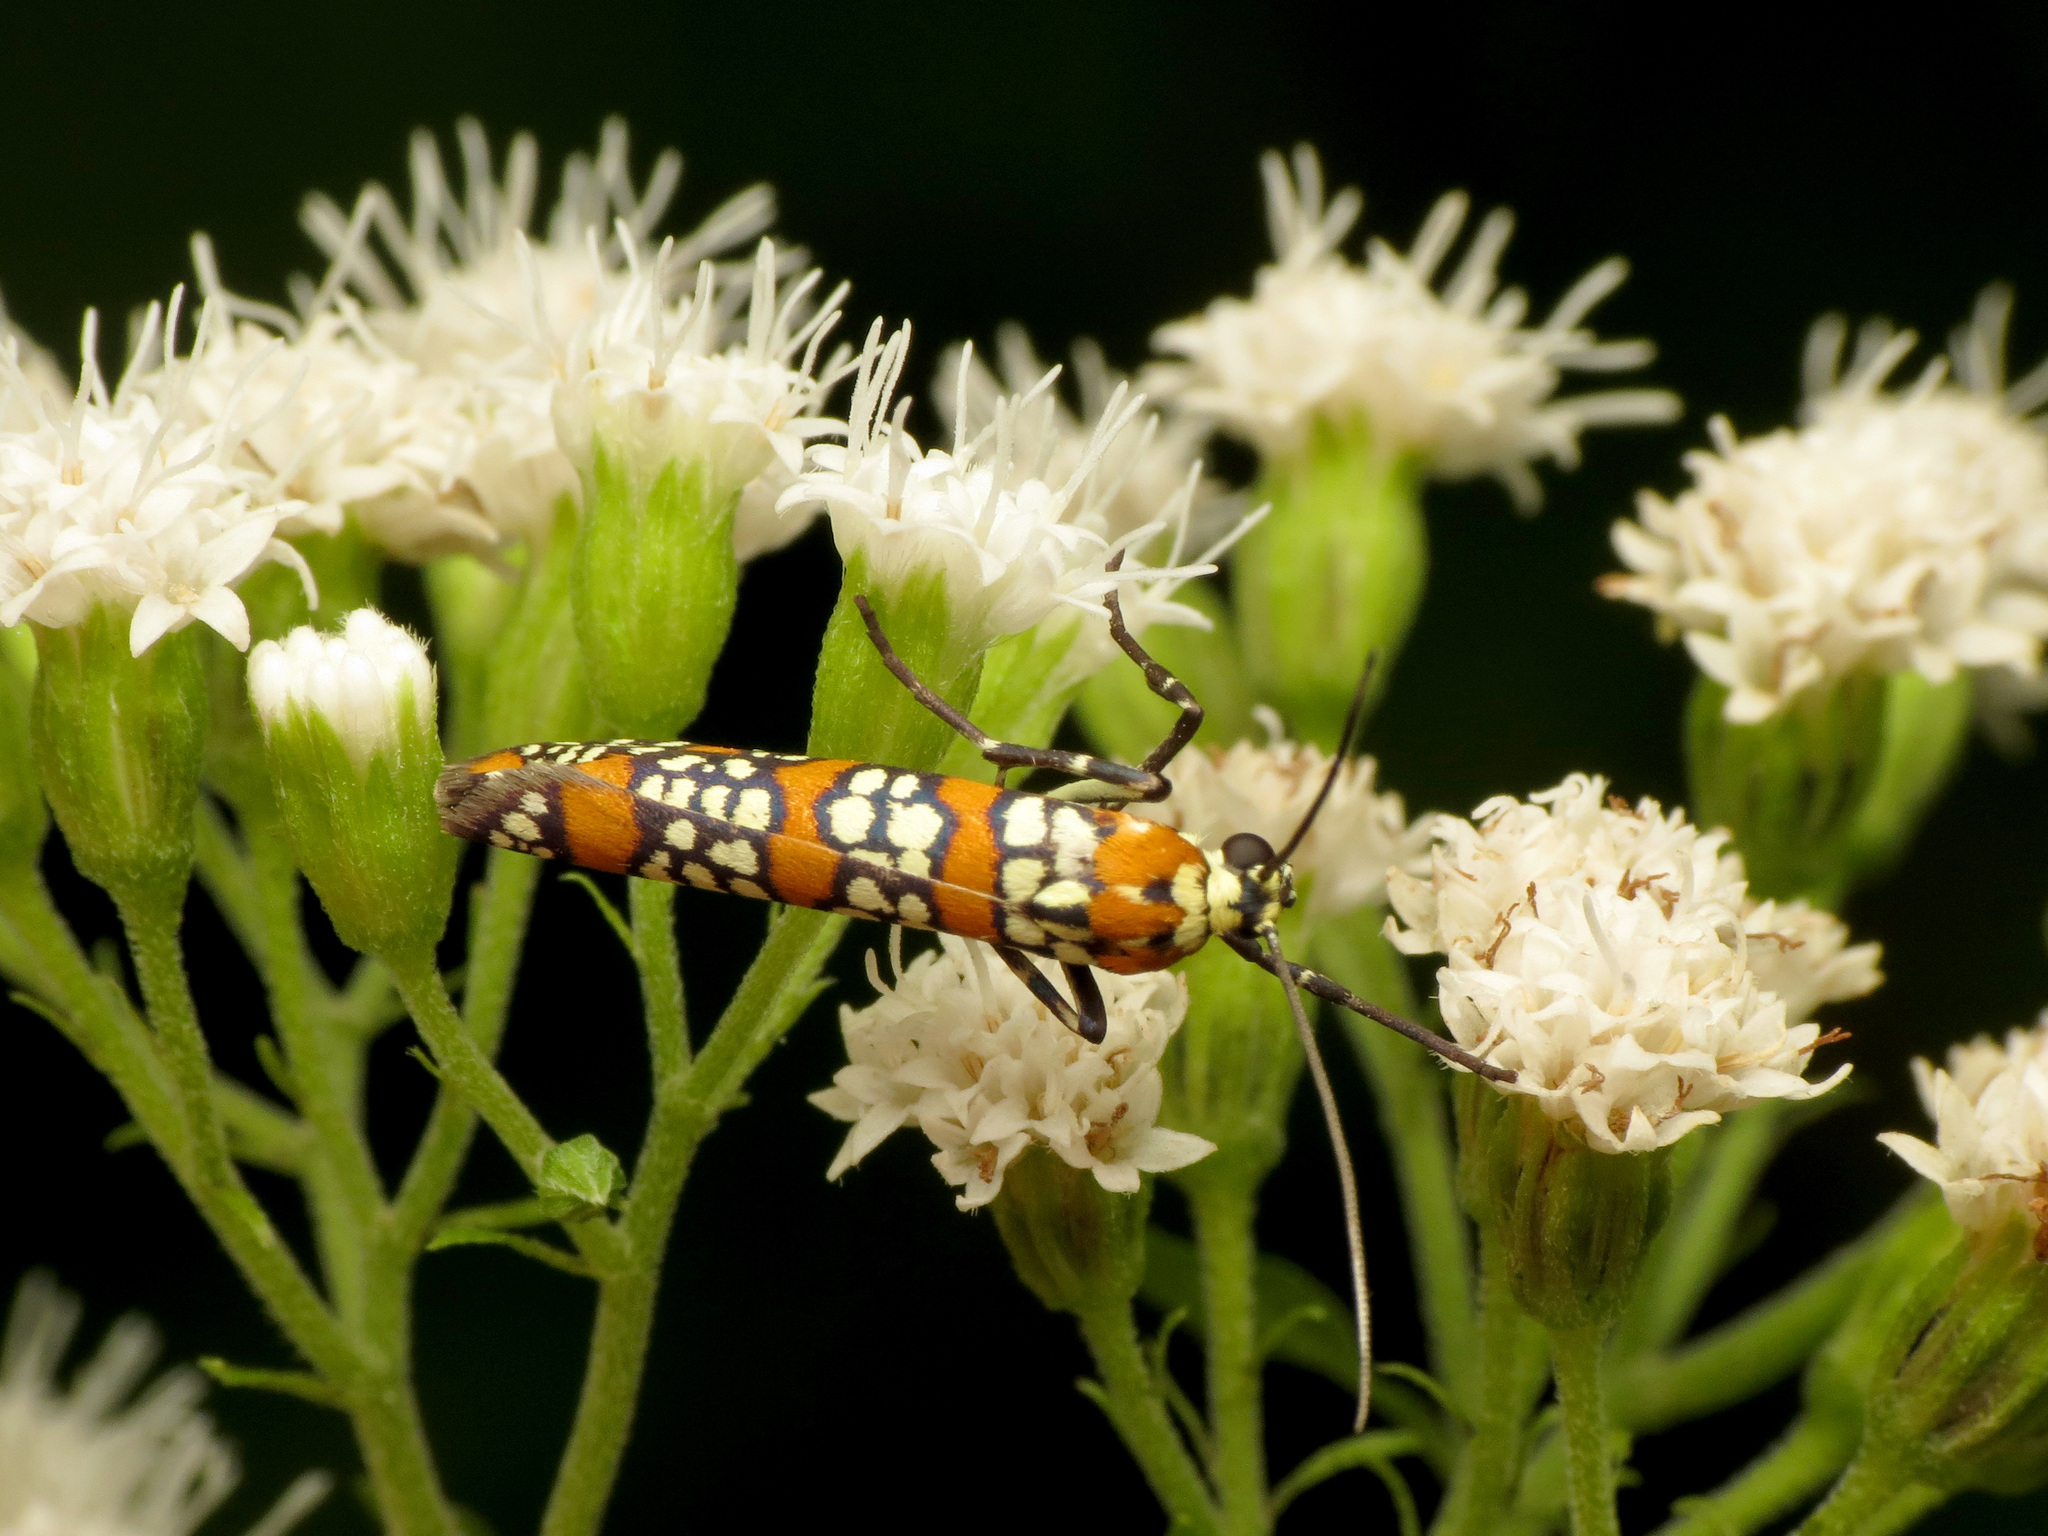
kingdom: Animalia
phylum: Arthropoda
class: Insecta
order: Lepidoptera
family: Attevidae
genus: Atteva
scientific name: Atteva punctella
